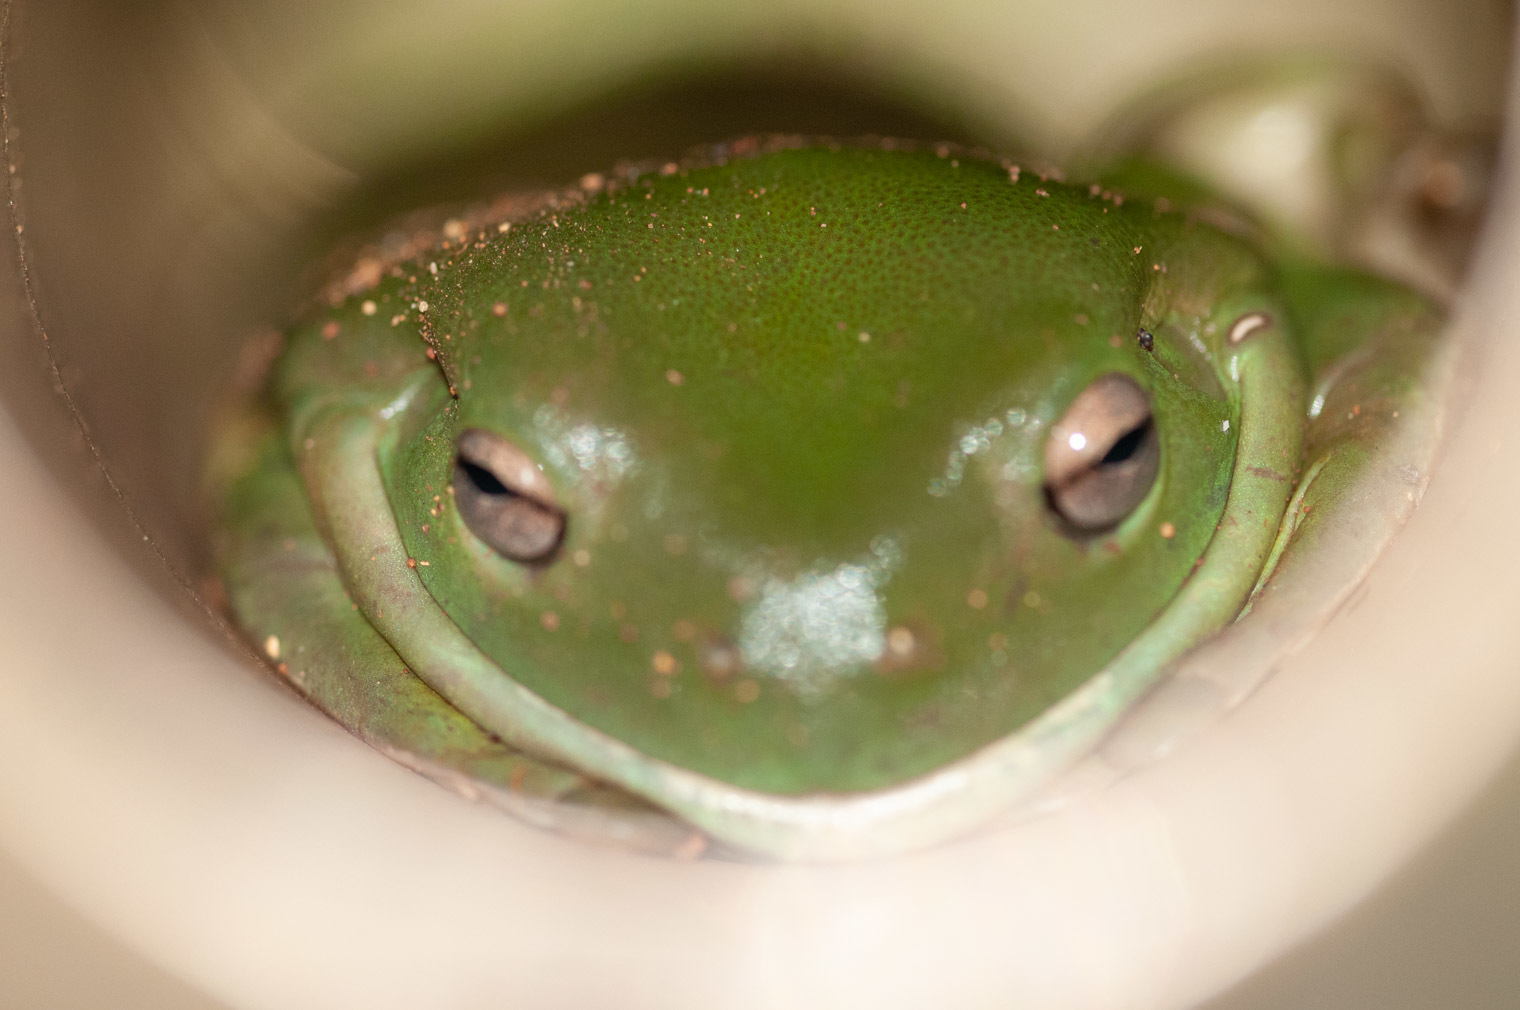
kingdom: Animalia
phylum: Chordata
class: Amphibia
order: Anura
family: Pelodryadidae
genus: Ranoidea
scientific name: Ranoidea caerulea
